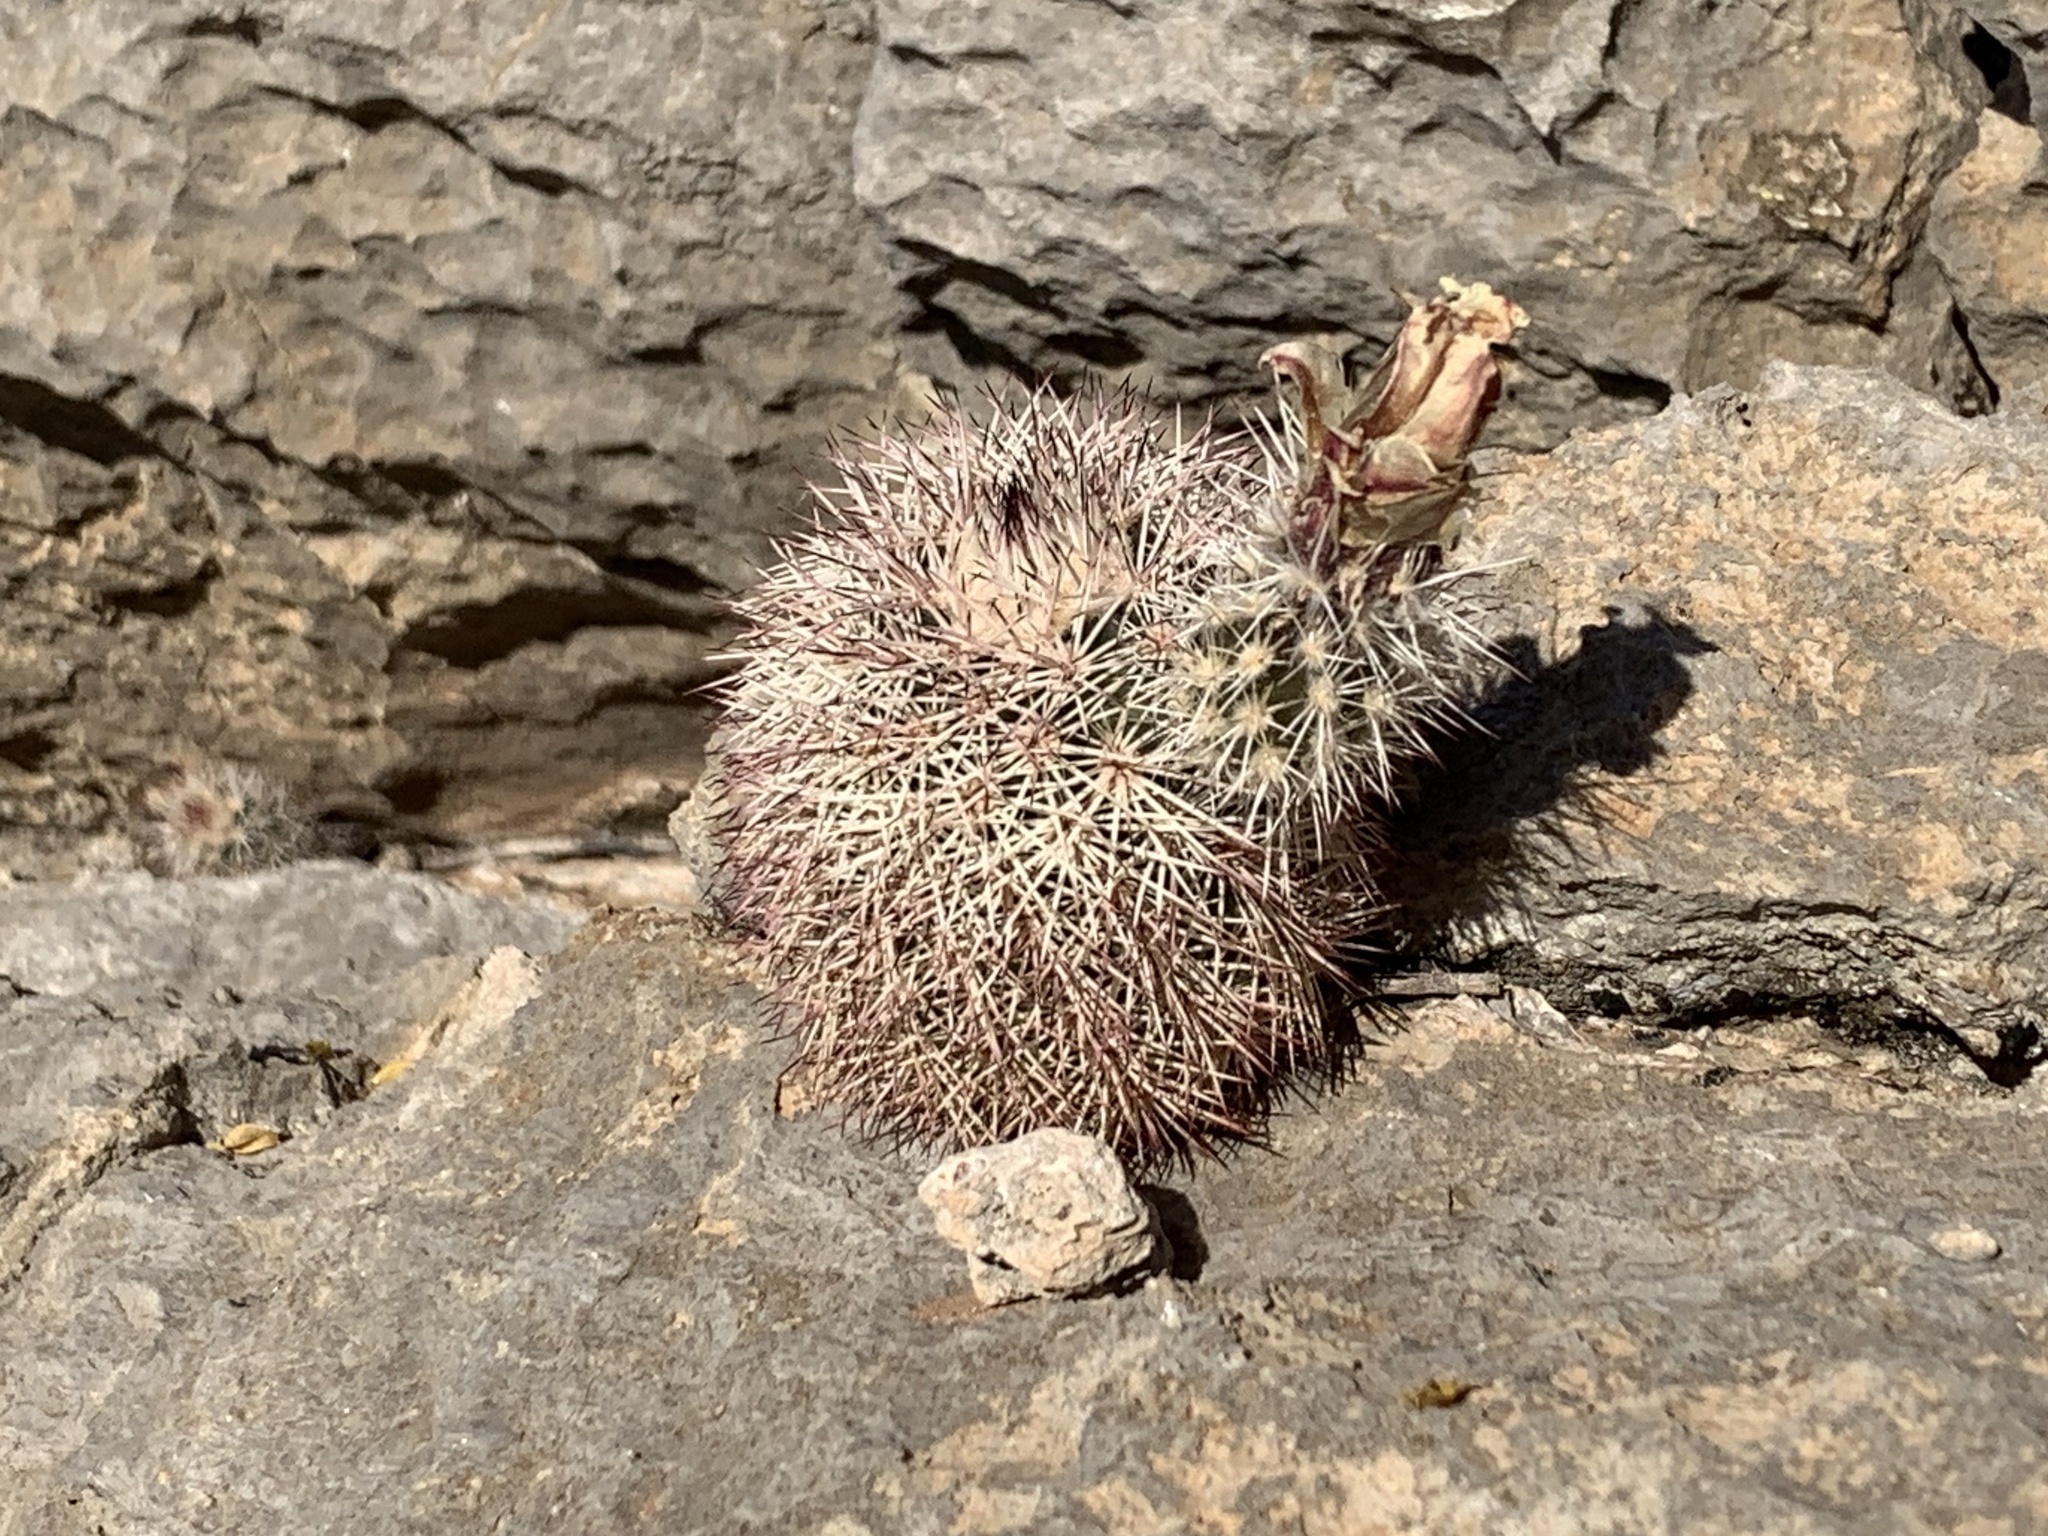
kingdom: Plantae
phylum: Tracheophyta
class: Magnoliopsida
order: Caryophyllales
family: Cactaceae
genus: Echinocereus
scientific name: Echinocereus dasyacanthus
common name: Spiny hedgehog cactus
